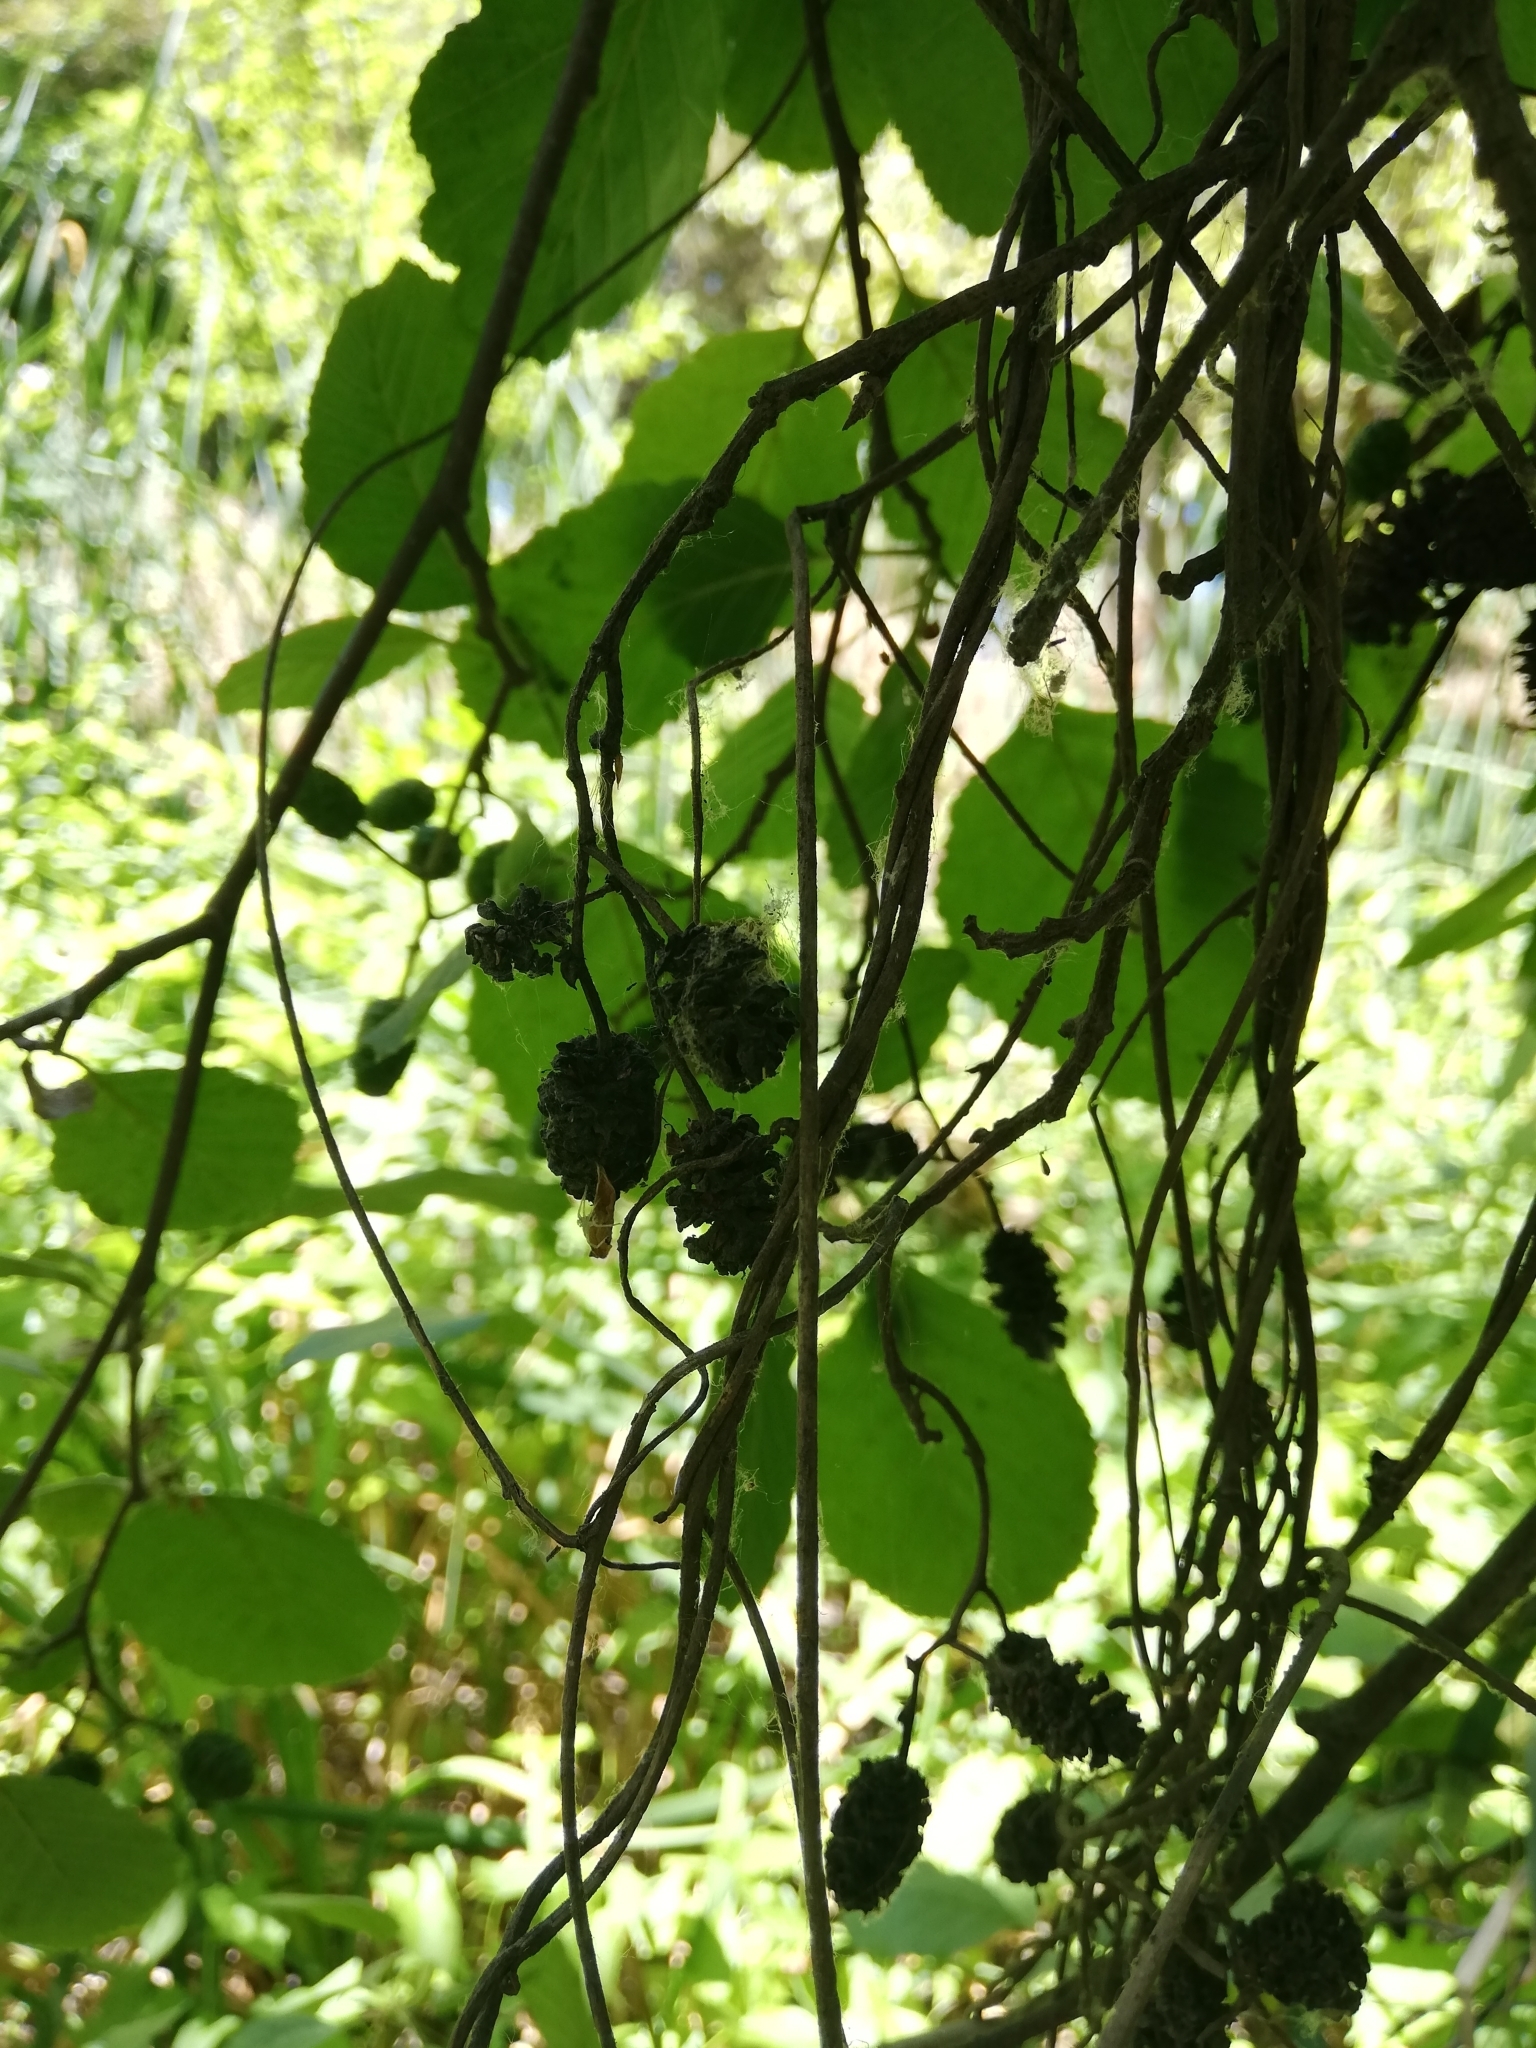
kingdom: Plantae
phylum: Tracheophyta
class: Magnoliopsida
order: Fagales
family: Betulaceae
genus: Alnus
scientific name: Alnus glutinosa
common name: Black alder
